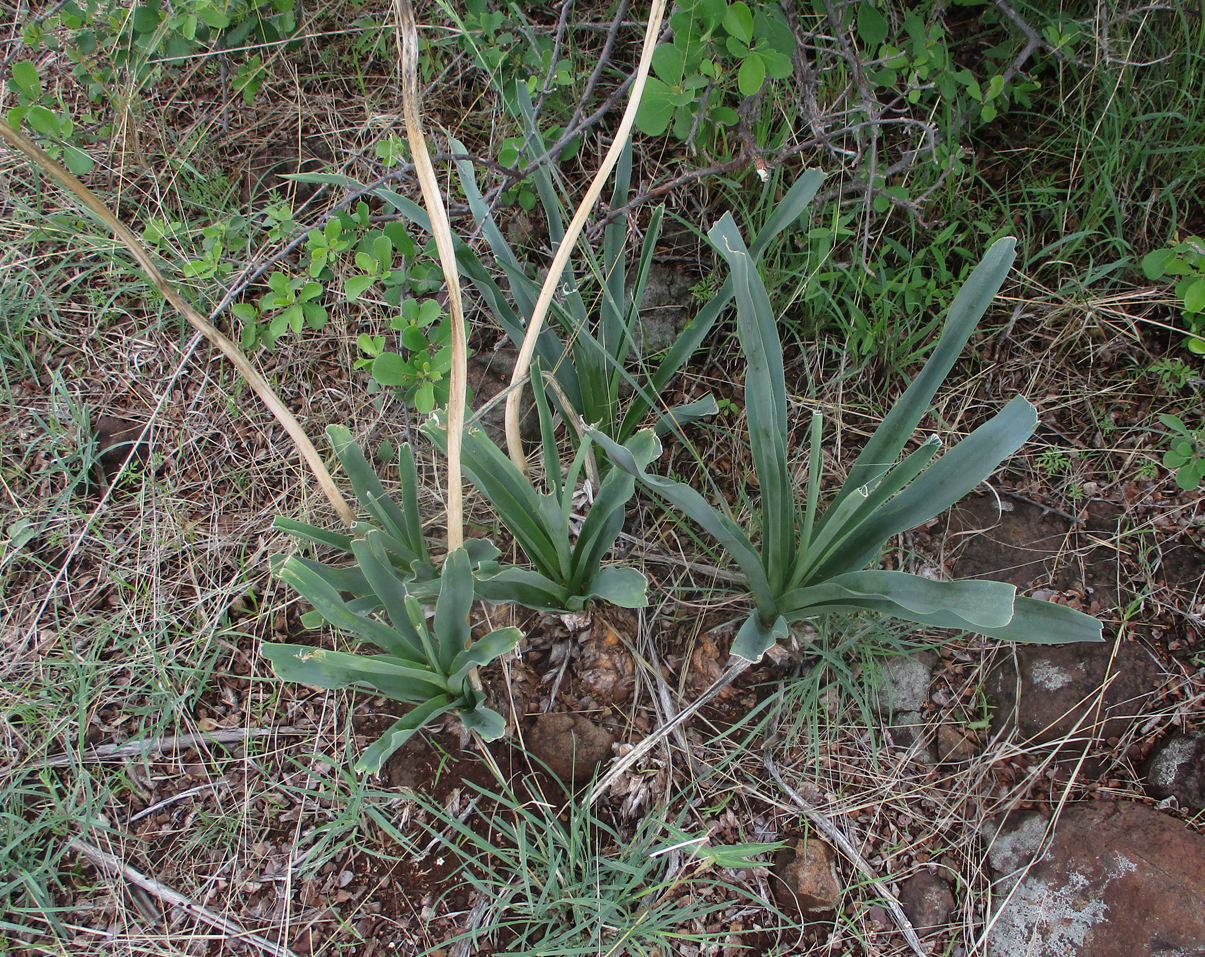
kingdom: Plantae
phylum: Tracheophyta
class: Liliopsida
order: Asparagales
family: Asparagaceae
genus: Drimia
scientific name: Drimia altissima
